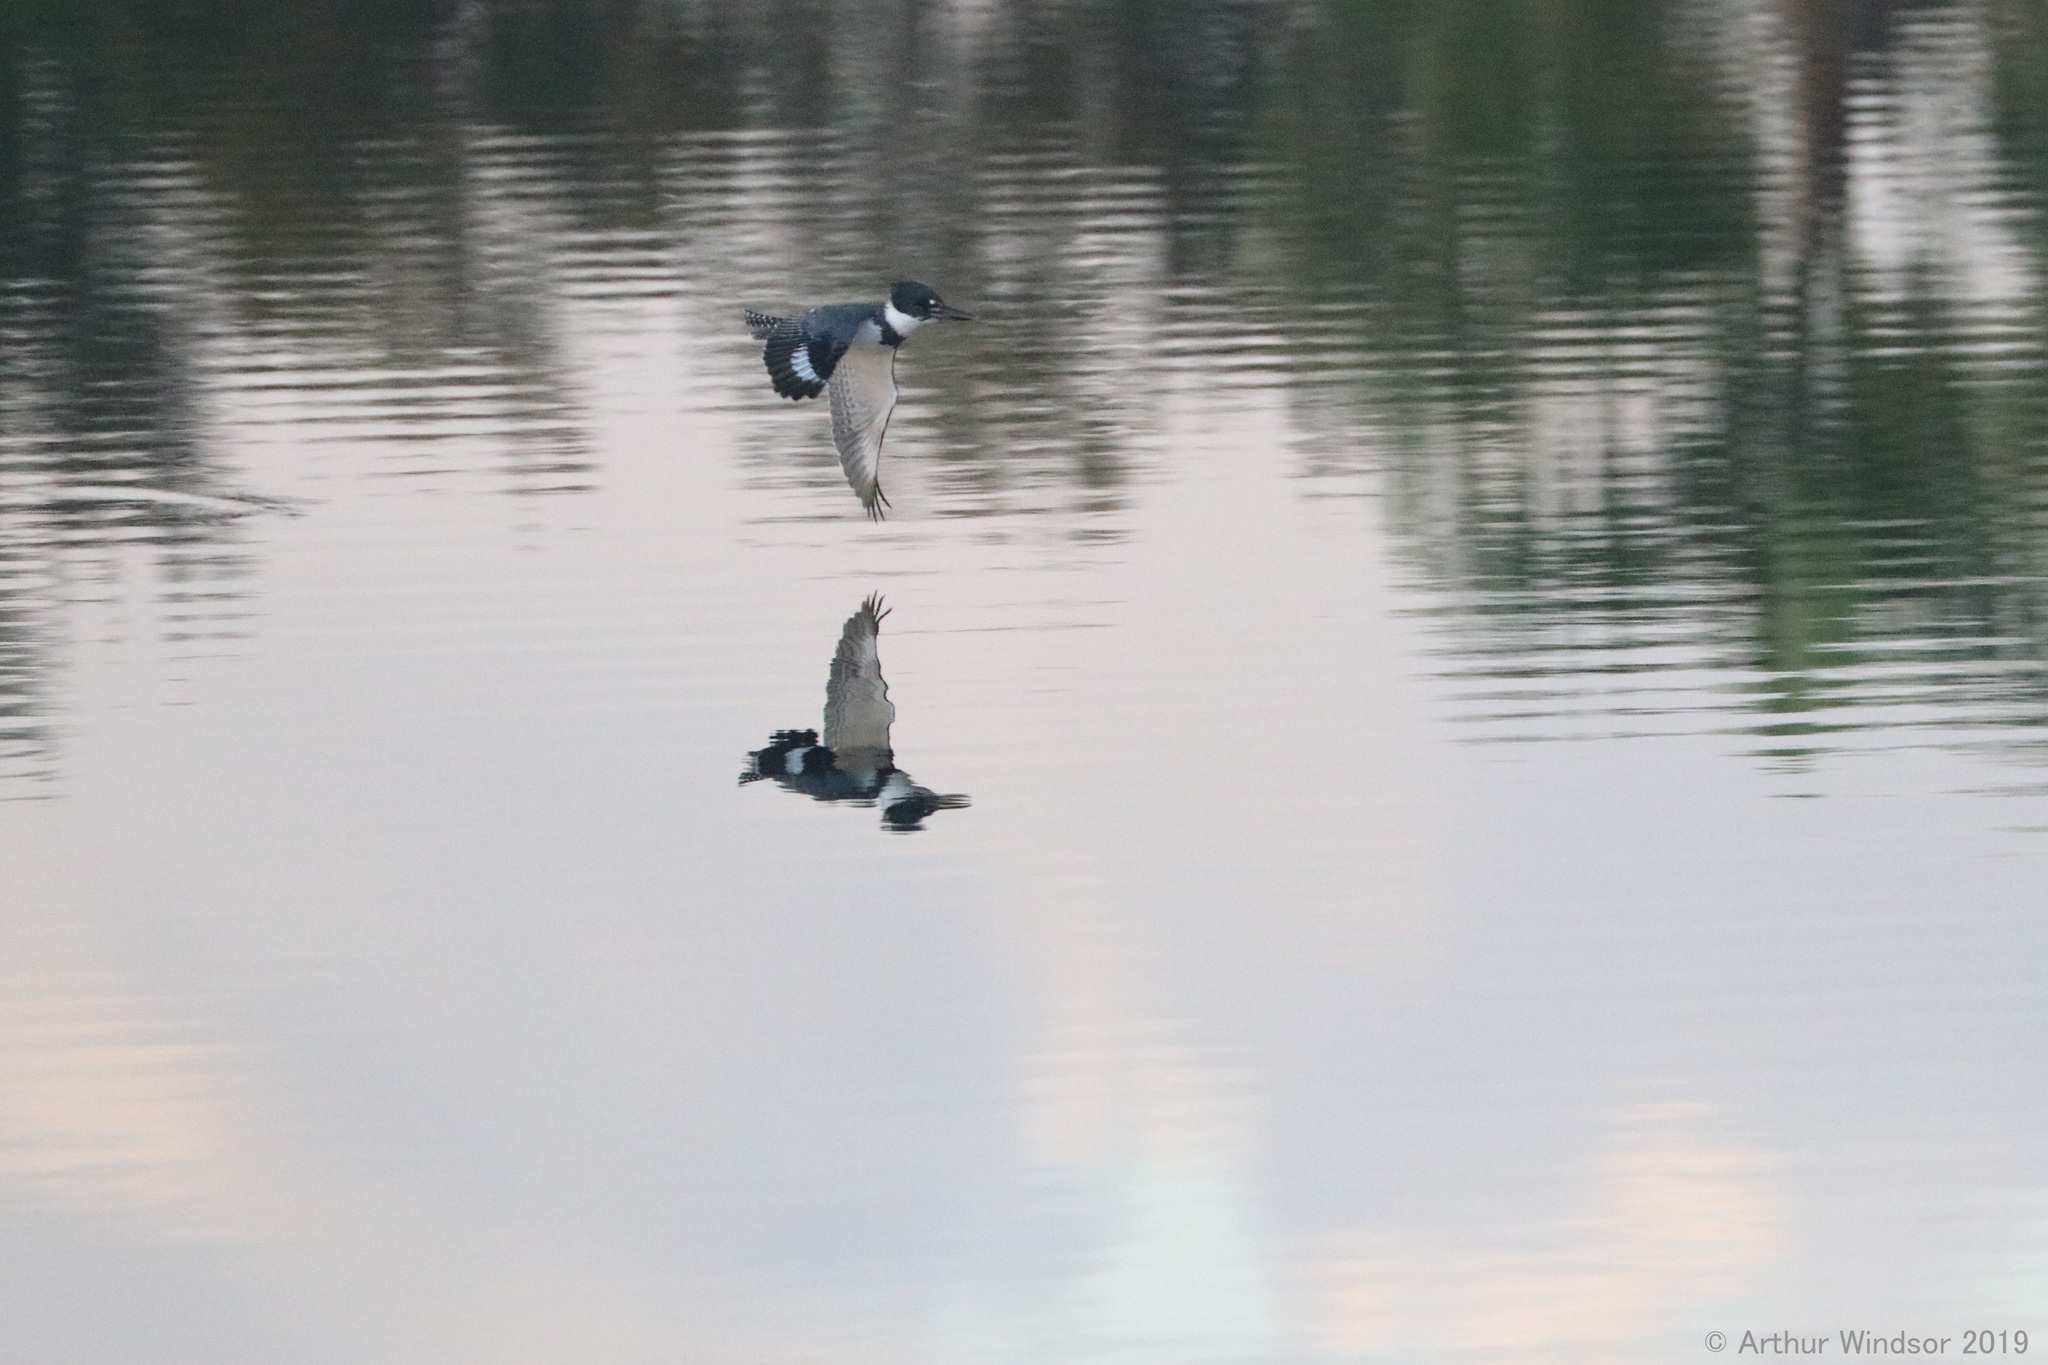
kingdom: Animalia
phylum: Chordata
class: Aves
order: Coraciiformes
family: Alcedinidae
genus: Megaceryle
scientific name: Megaceryle alcyon
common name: Belted kingfisher
